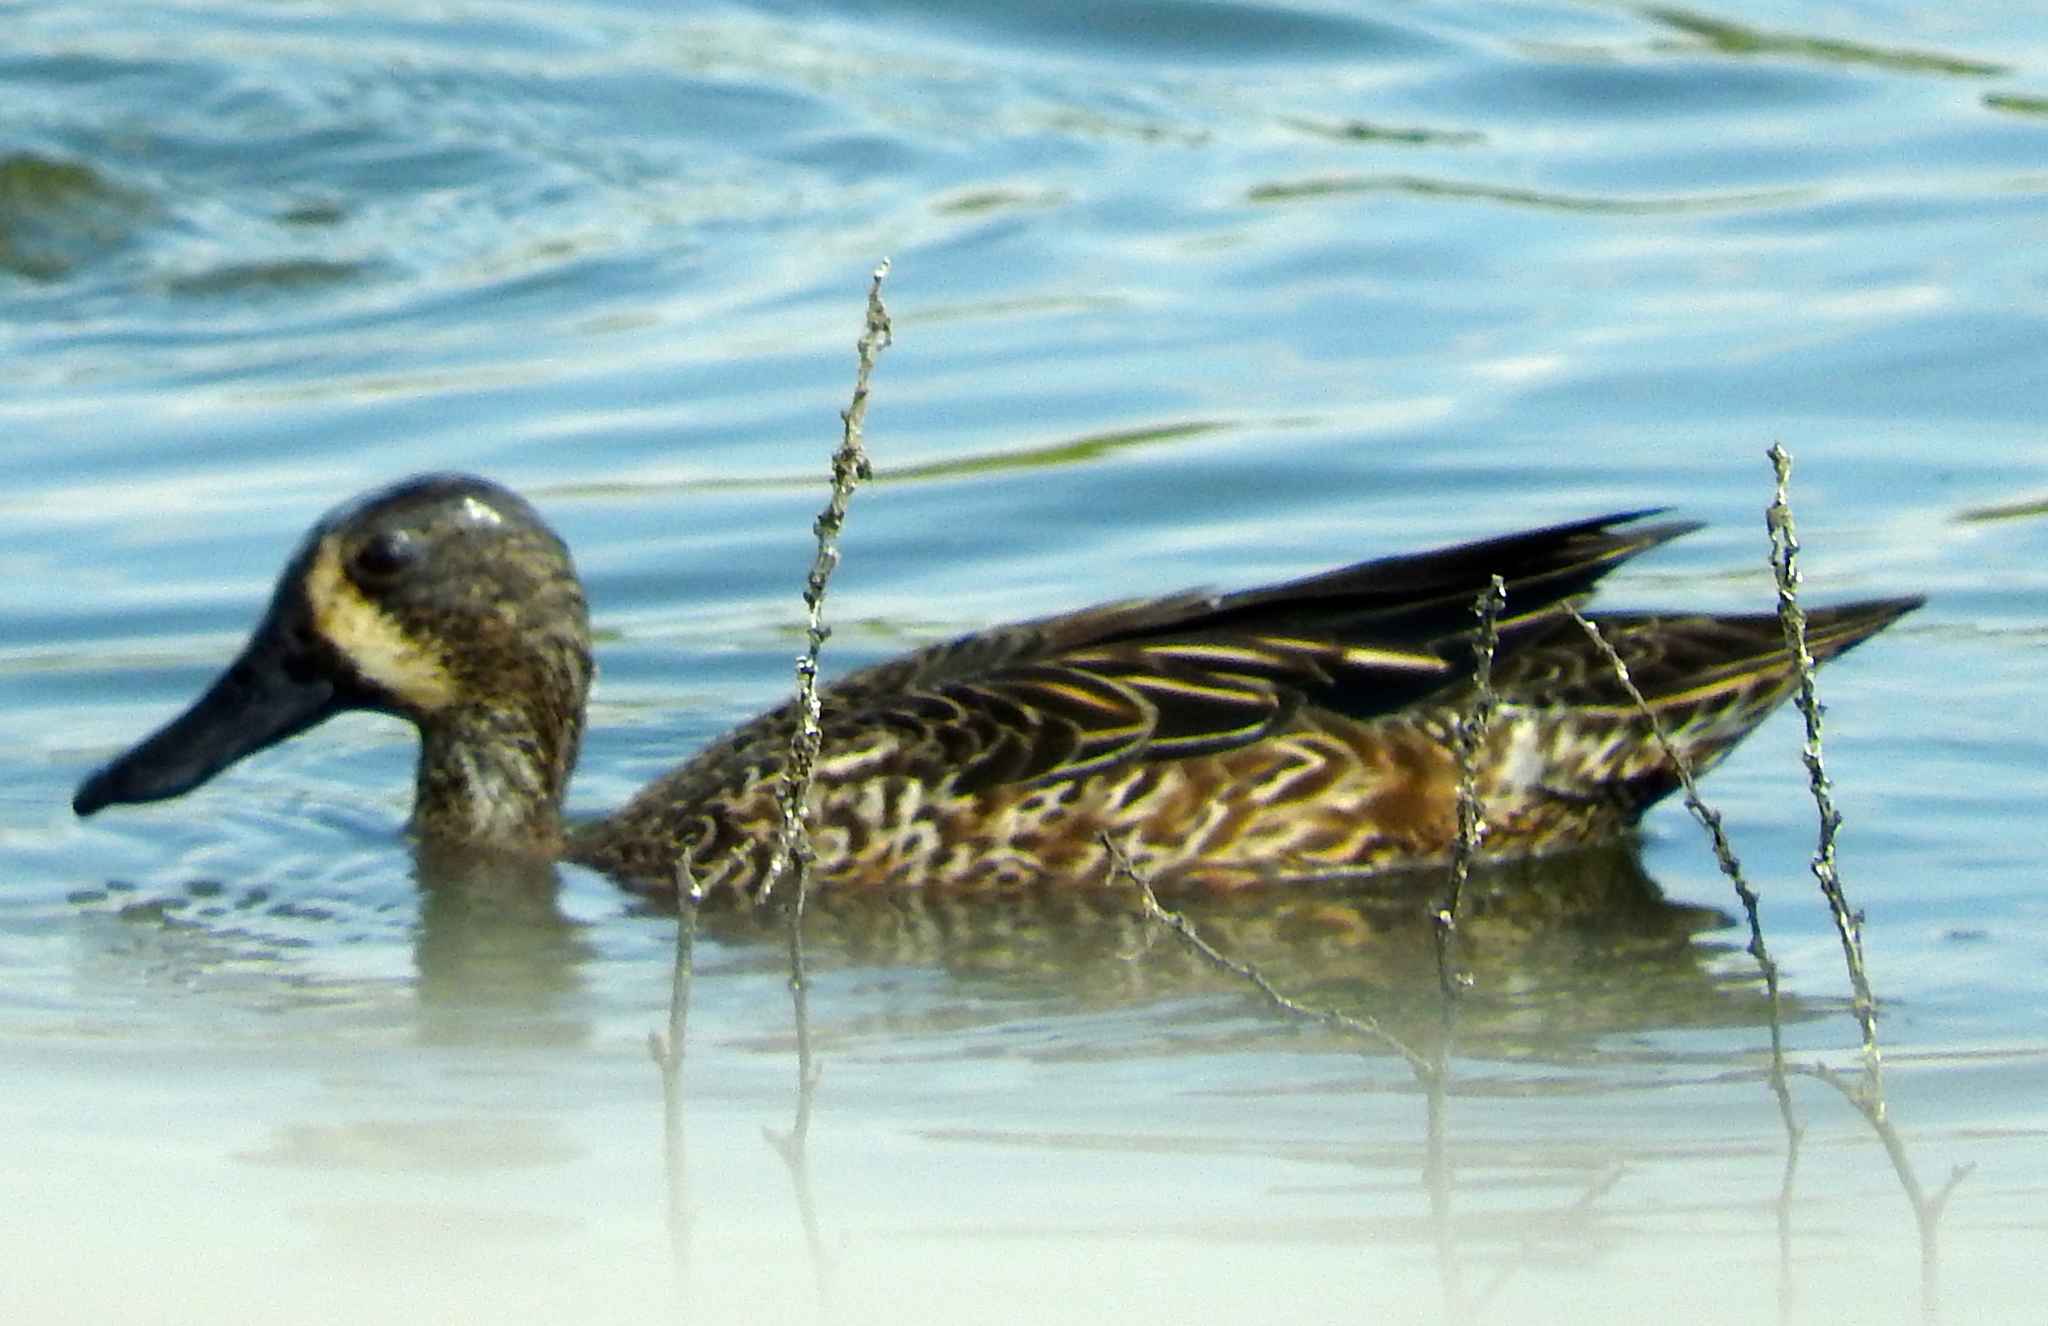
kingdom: Animalia
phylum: Chordata
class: Aves
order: Anseriformes
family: Anatidae
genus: Spatula
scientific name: Spatula discors
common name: Blue-winged teal
